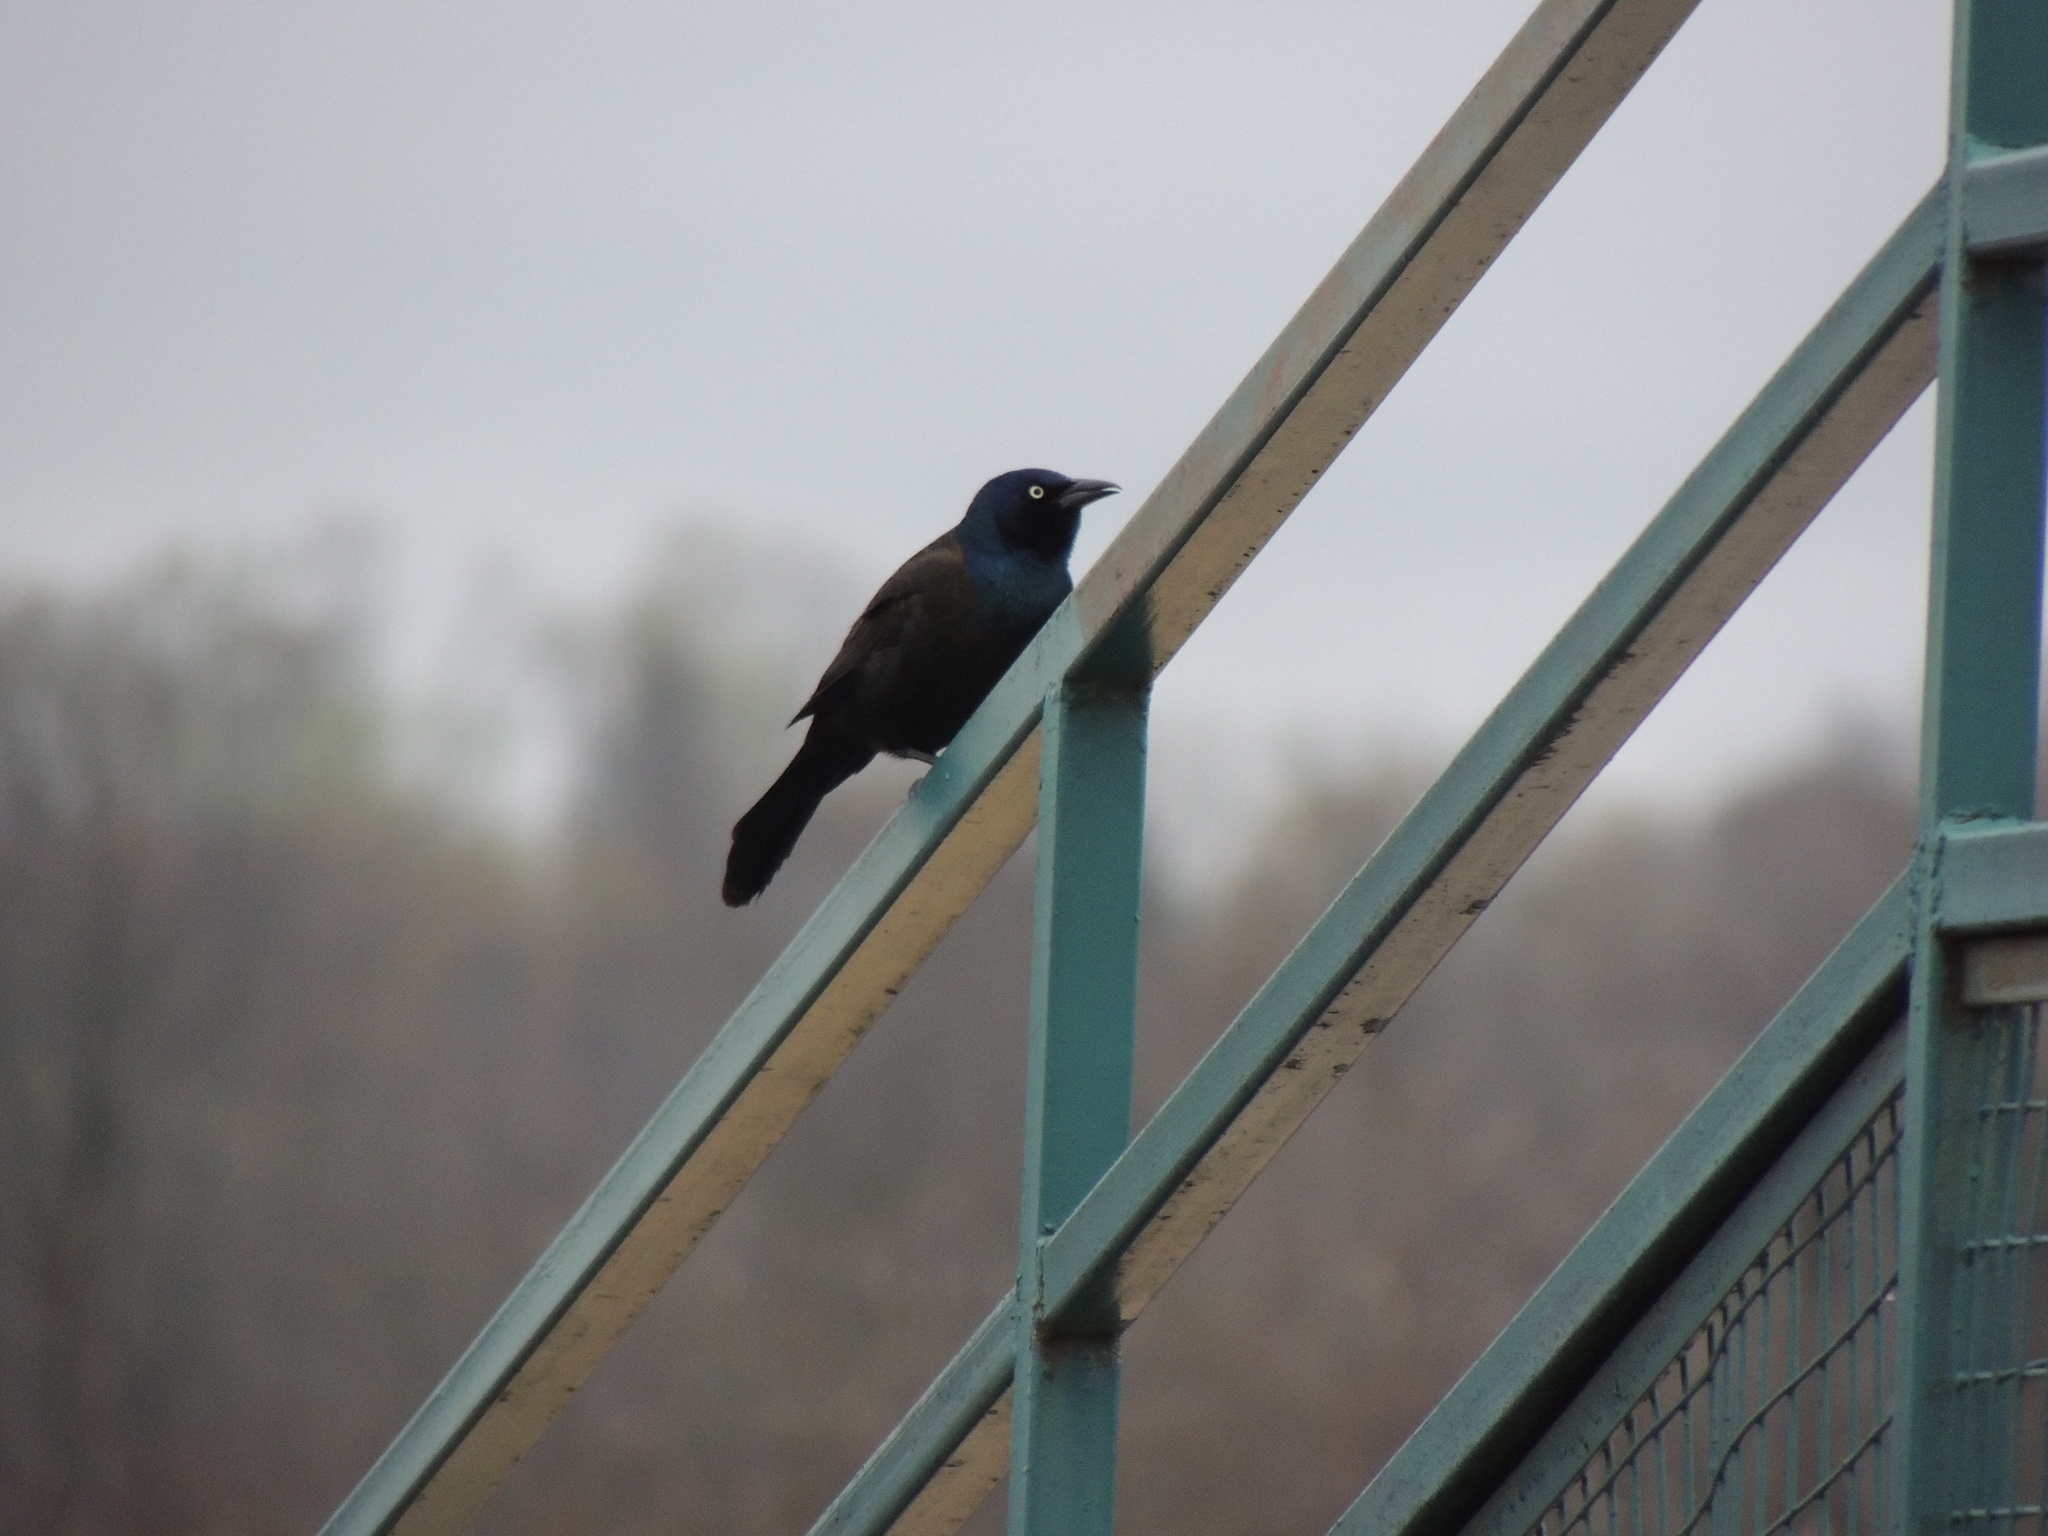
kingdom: Animalia
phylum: Chordata
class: Aves
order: Passeriformes
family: Icteridae
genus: Quiscalus
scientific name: Quiscalus quiscula
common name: Common grackle
